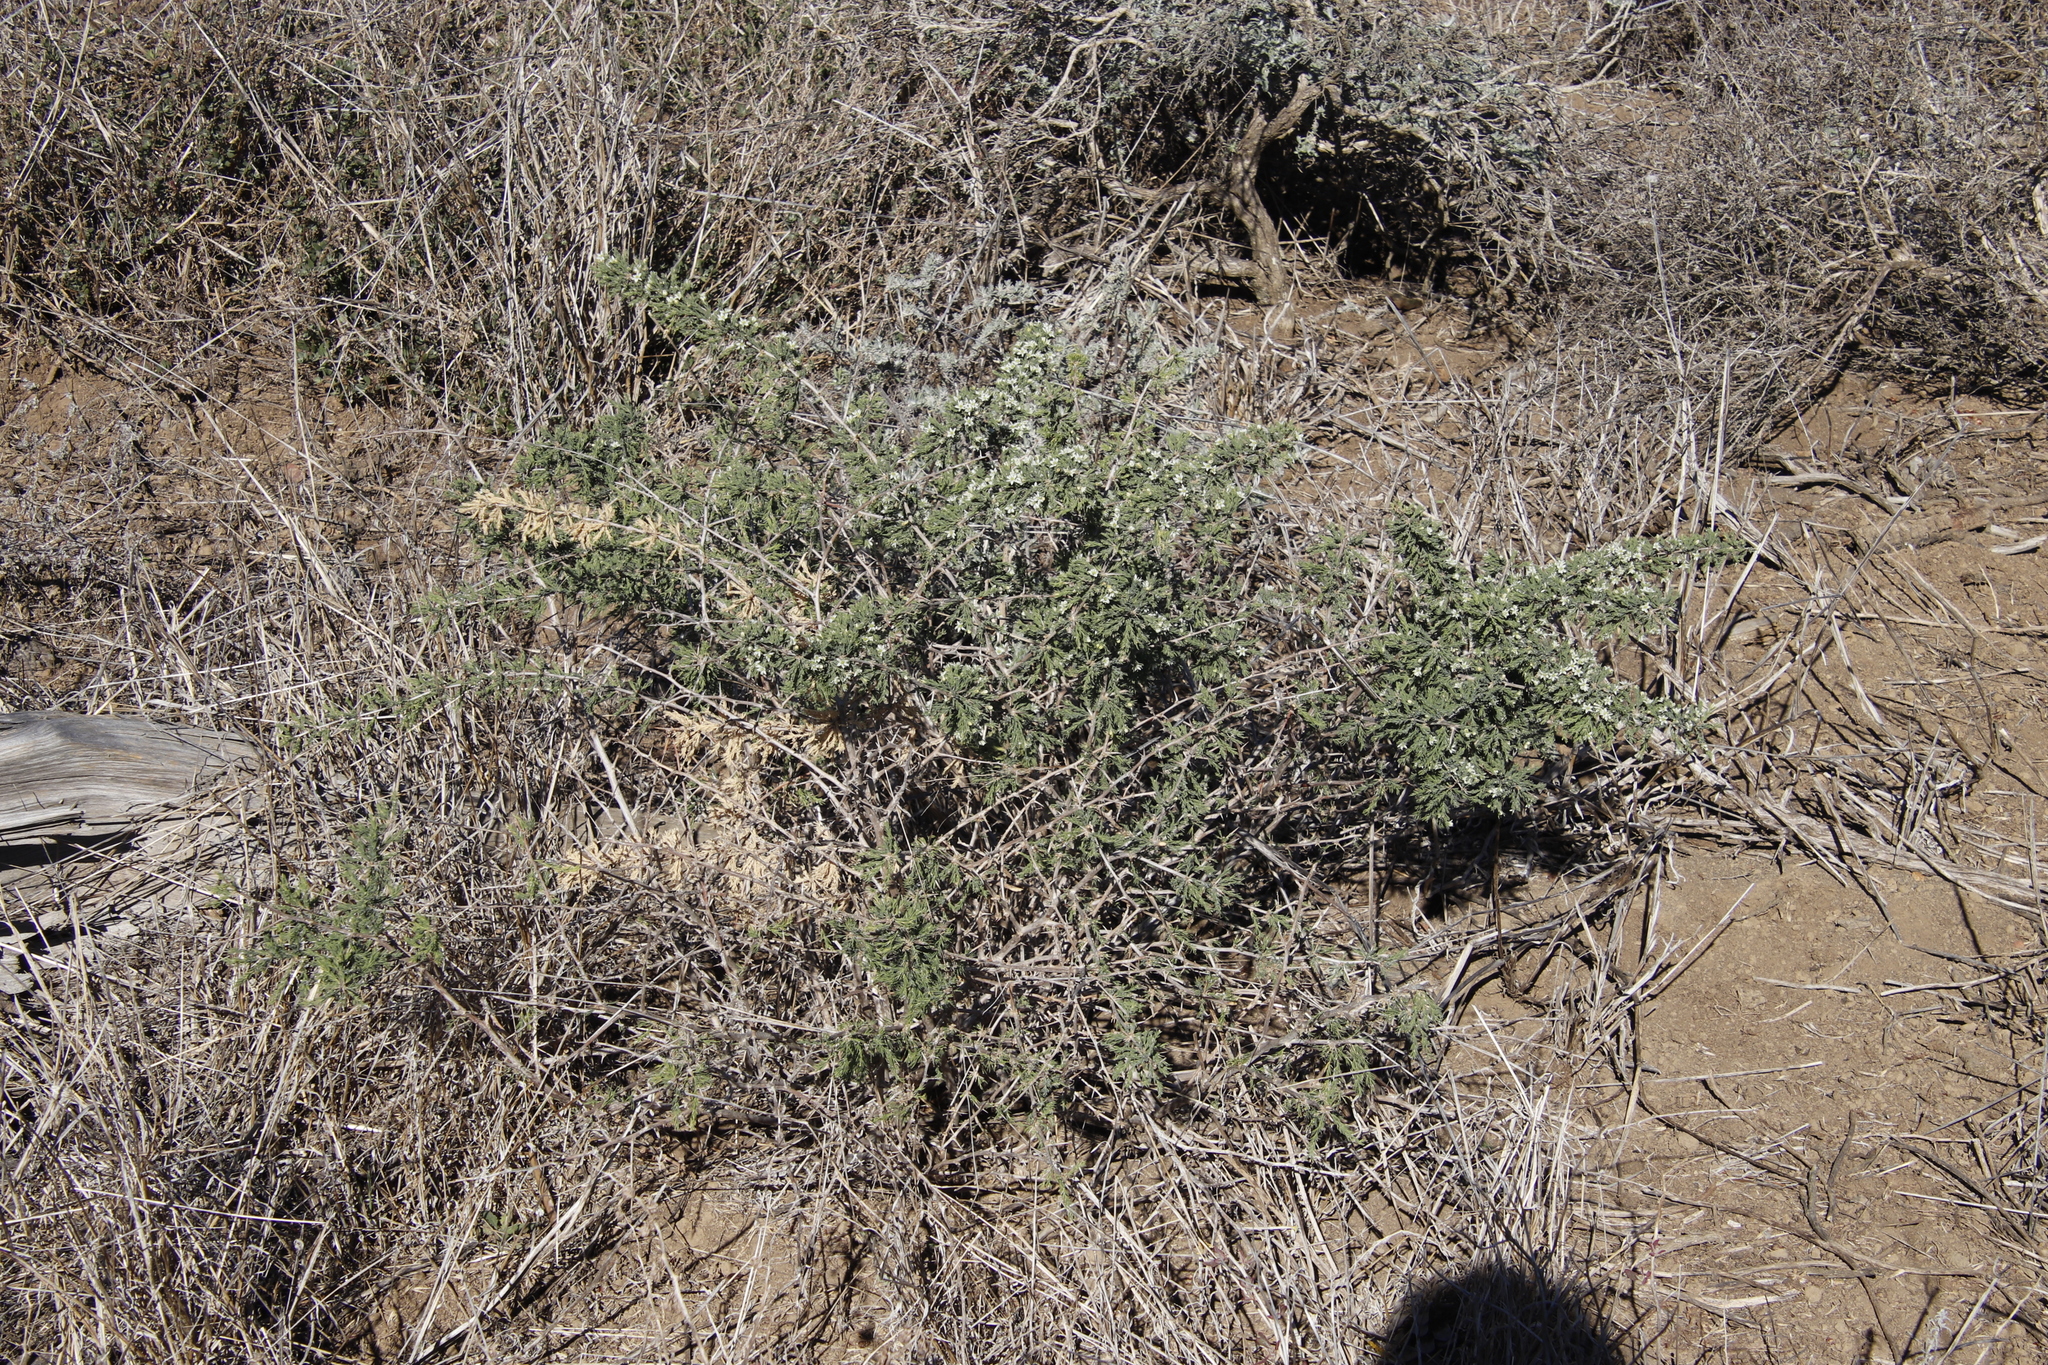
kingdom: Plantae
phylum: Tracheophyta
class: Liliopsida
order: Asparagales
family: Asparagaceae
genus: Asparagus
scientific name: Asparagus capensis
